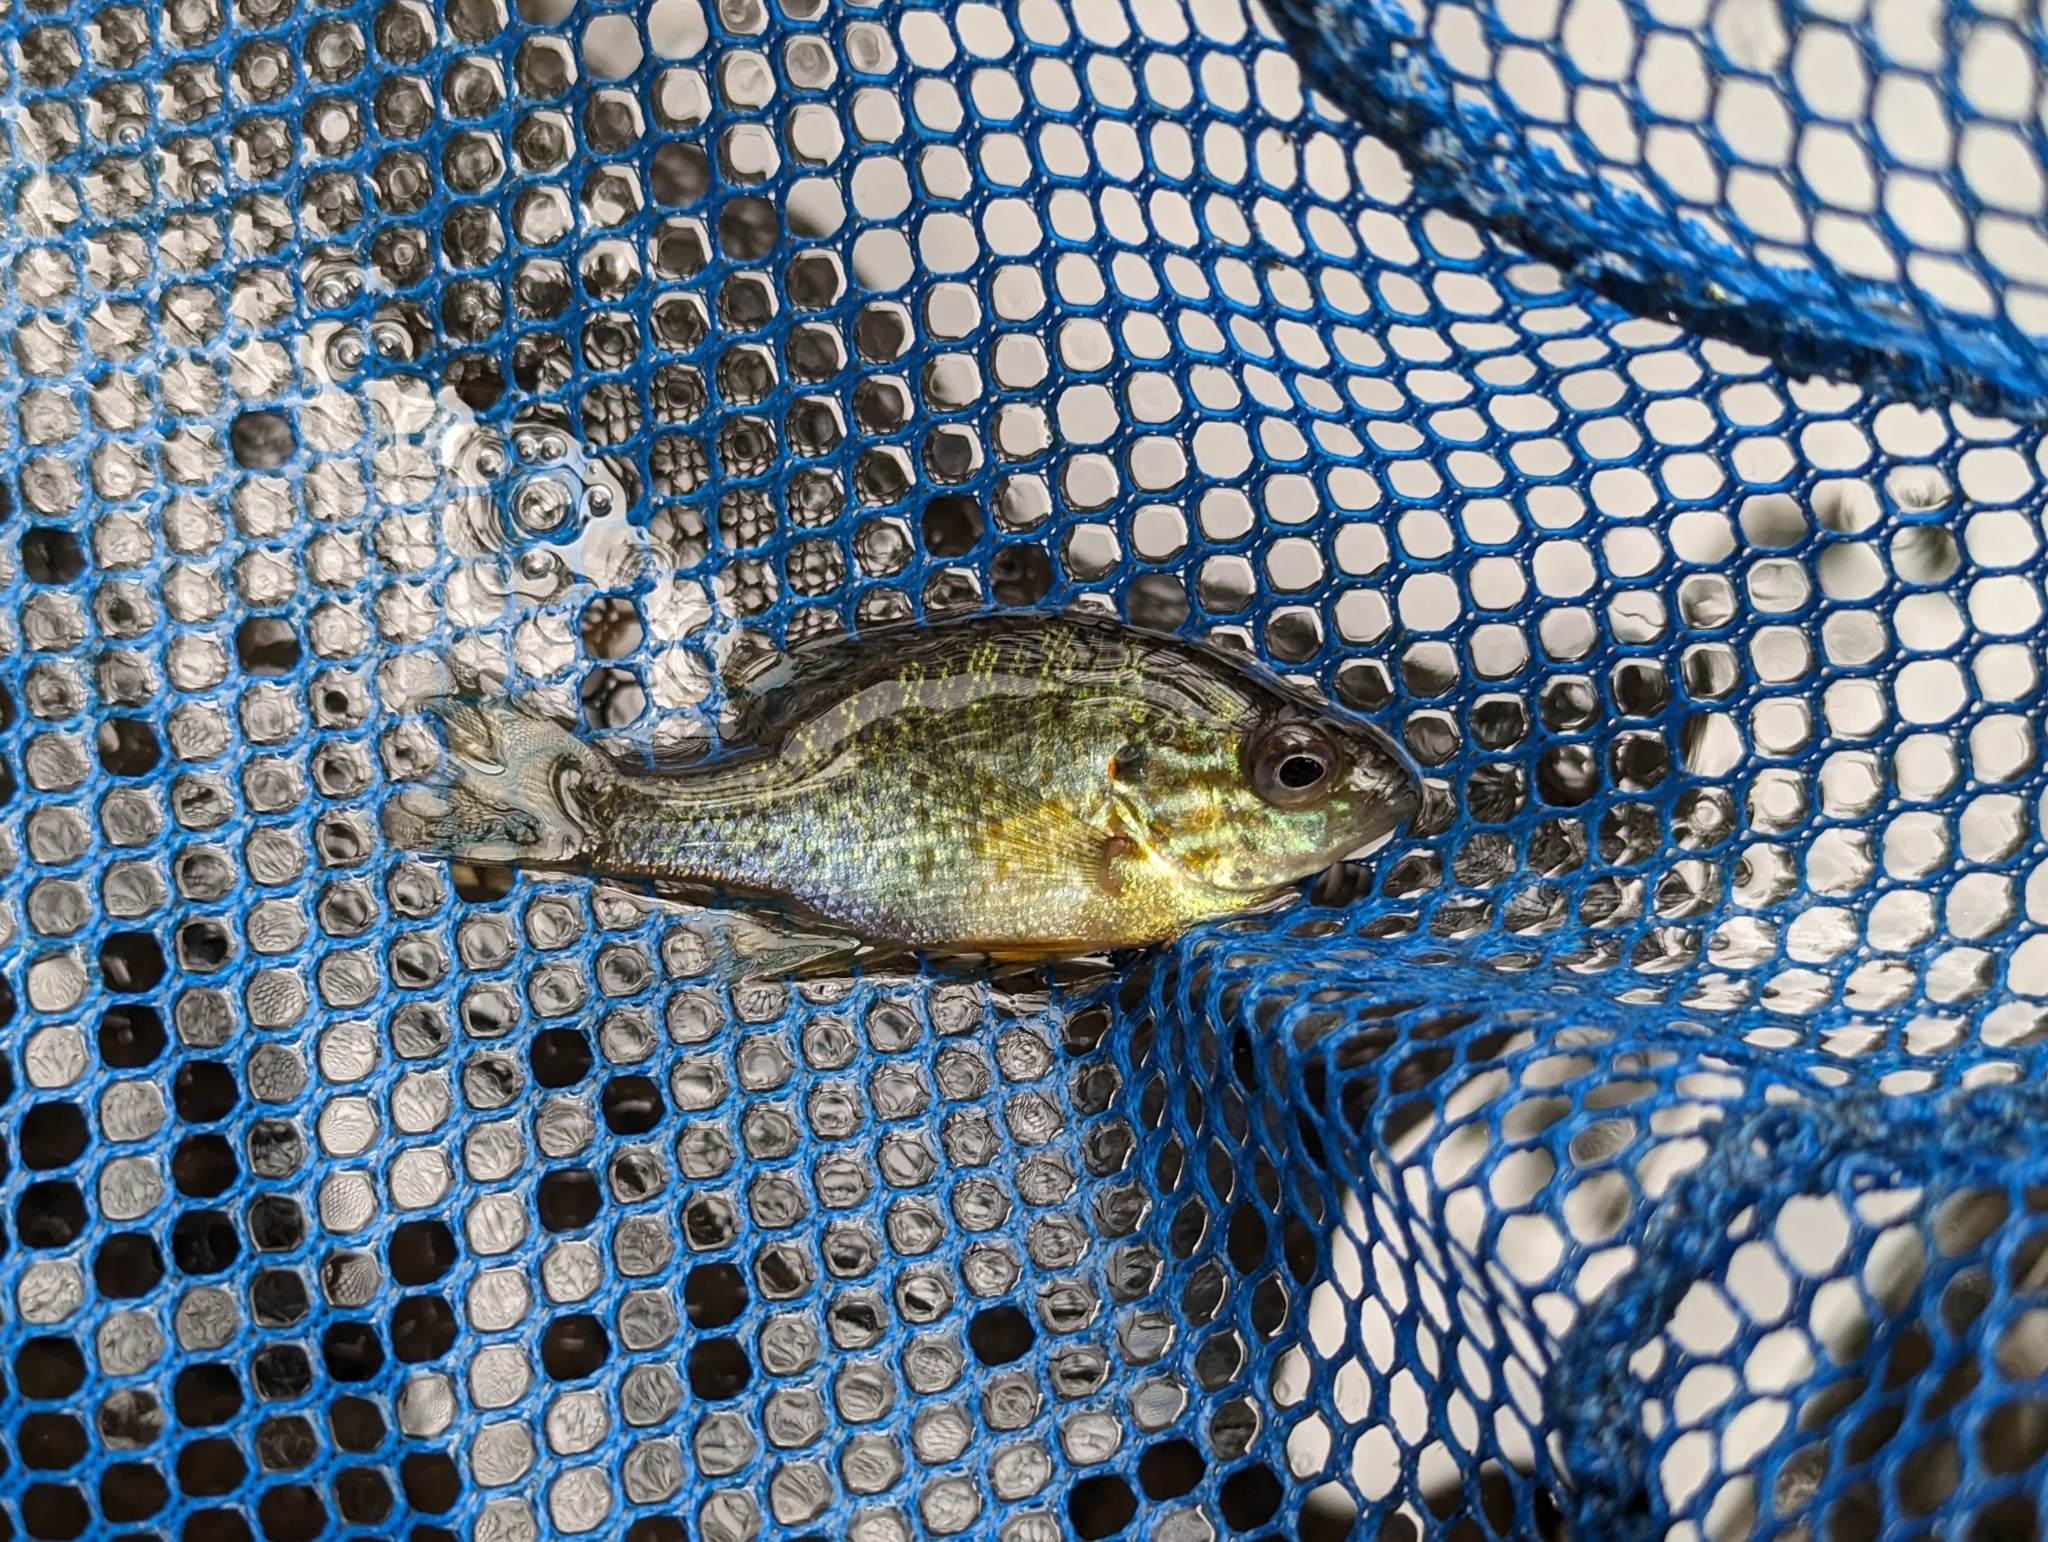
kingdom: Animalia
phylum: Chordata
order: Perciformes
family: Centrarchidae
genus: Lepomis
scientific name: Lepomis gibbosus
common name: Pumpkinseed
